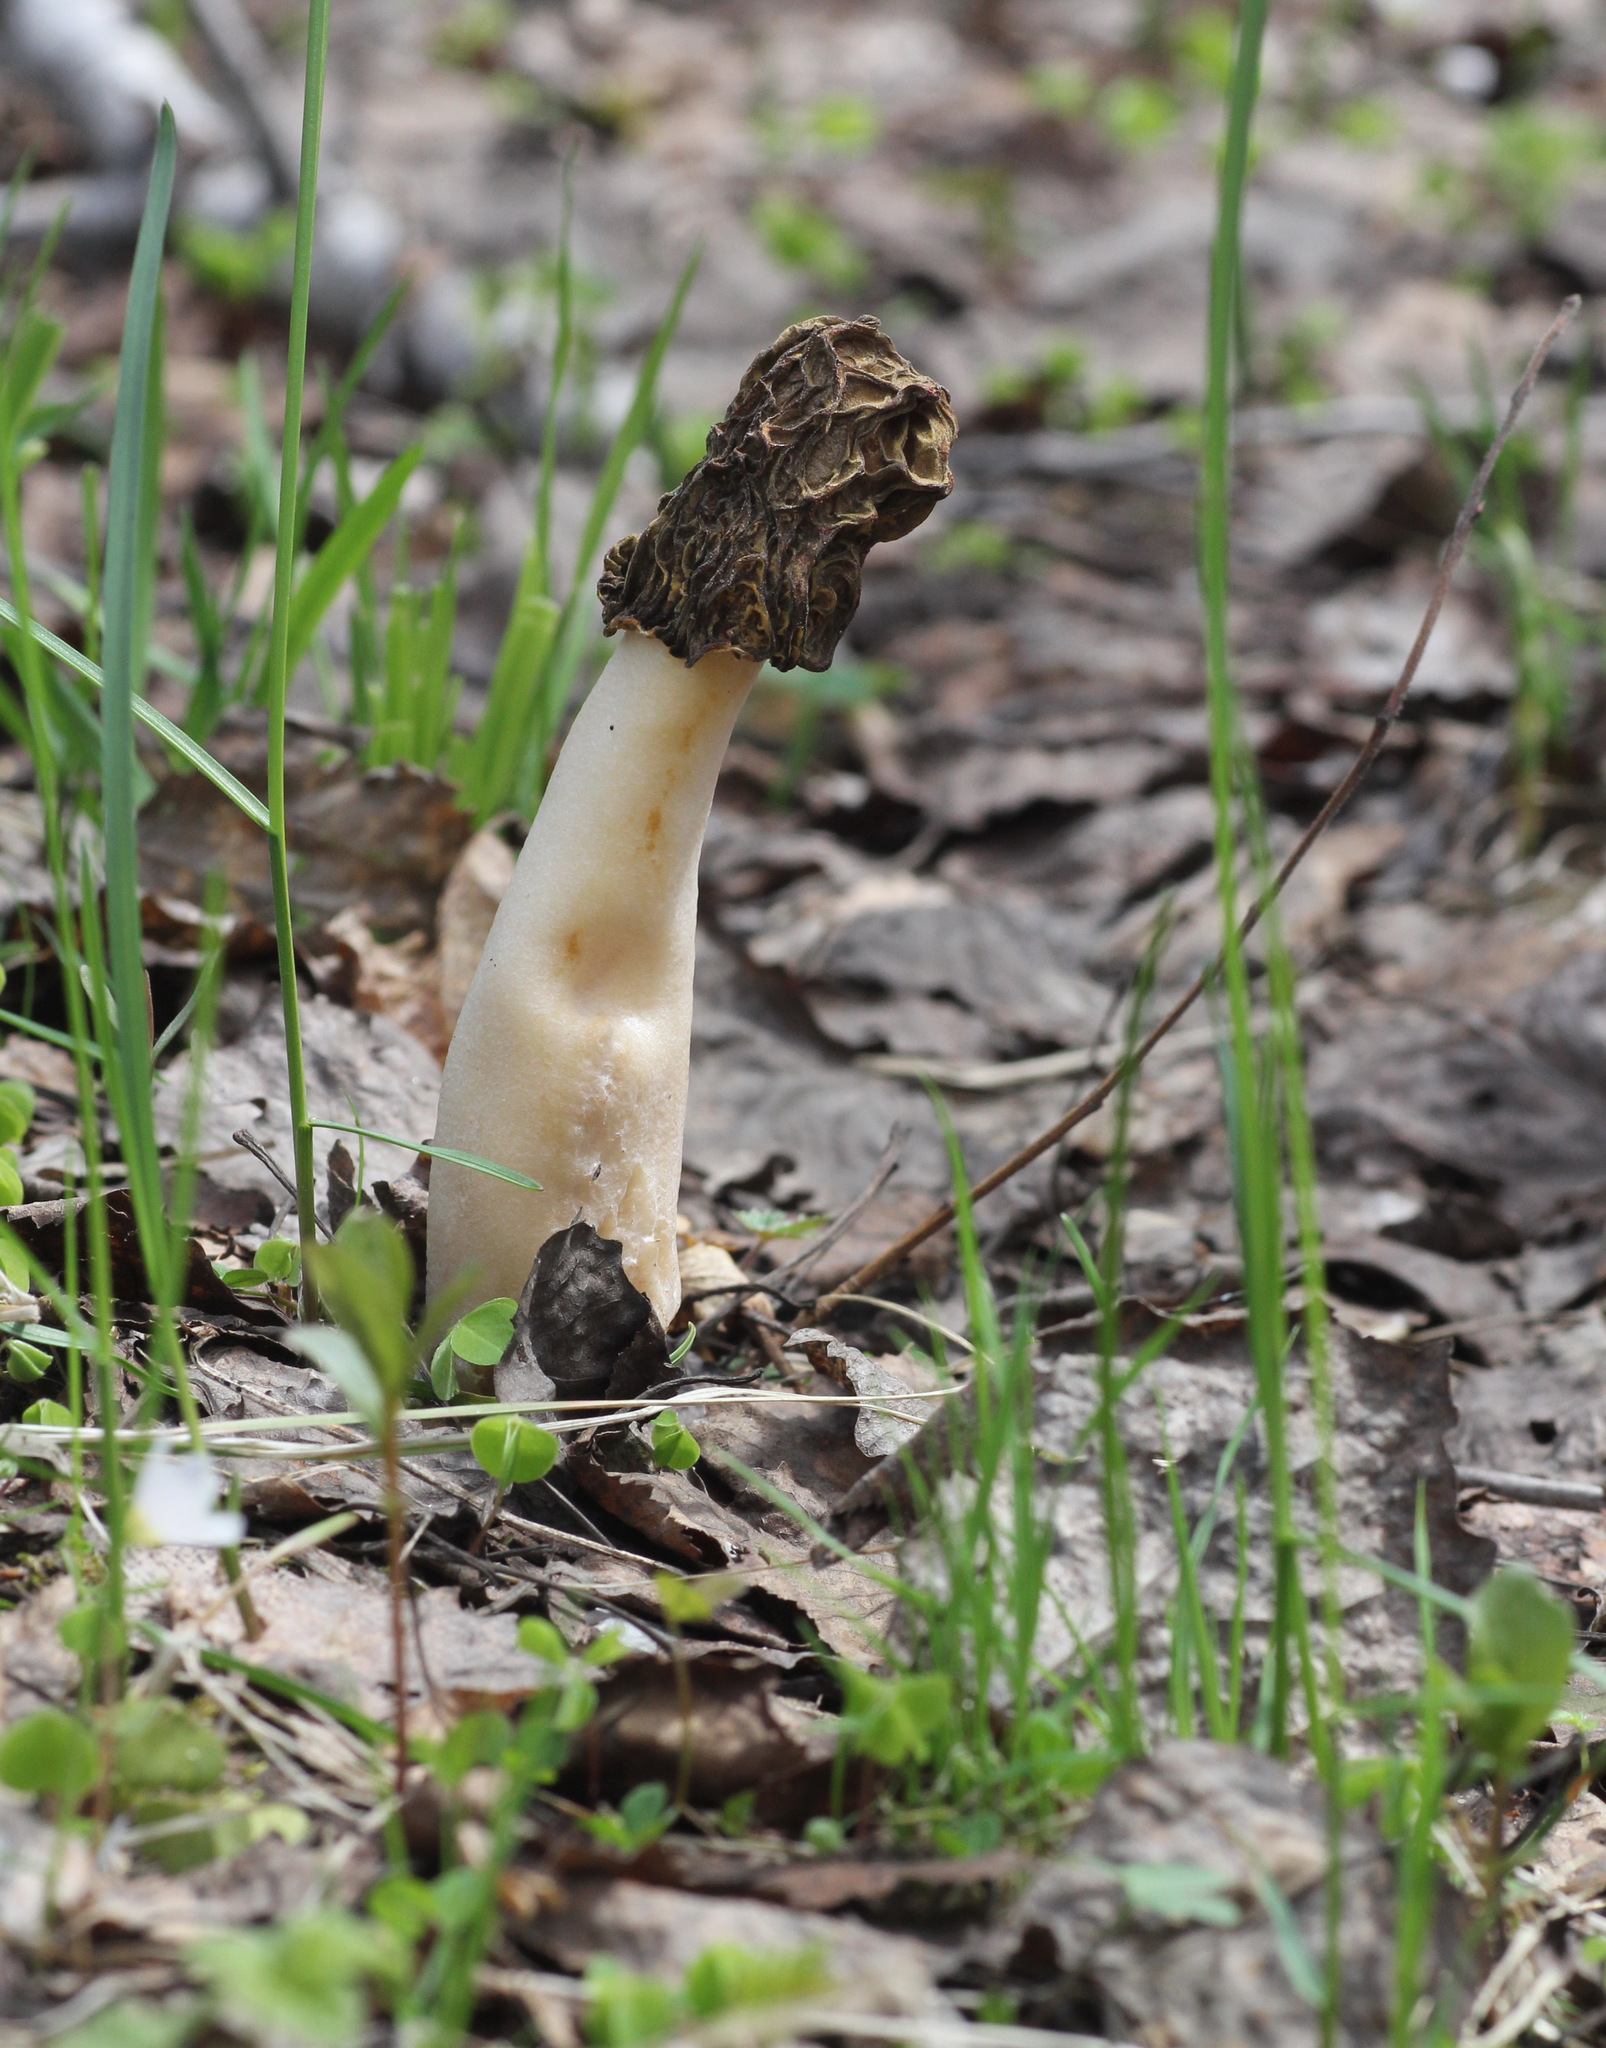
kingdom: Fungi
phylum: Ascomycota
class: Pezizomycetes
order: Pezizales
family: Morchellaceae
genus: Verpa
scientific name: Verpa bohemica
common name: Wrinkled thimble morel
